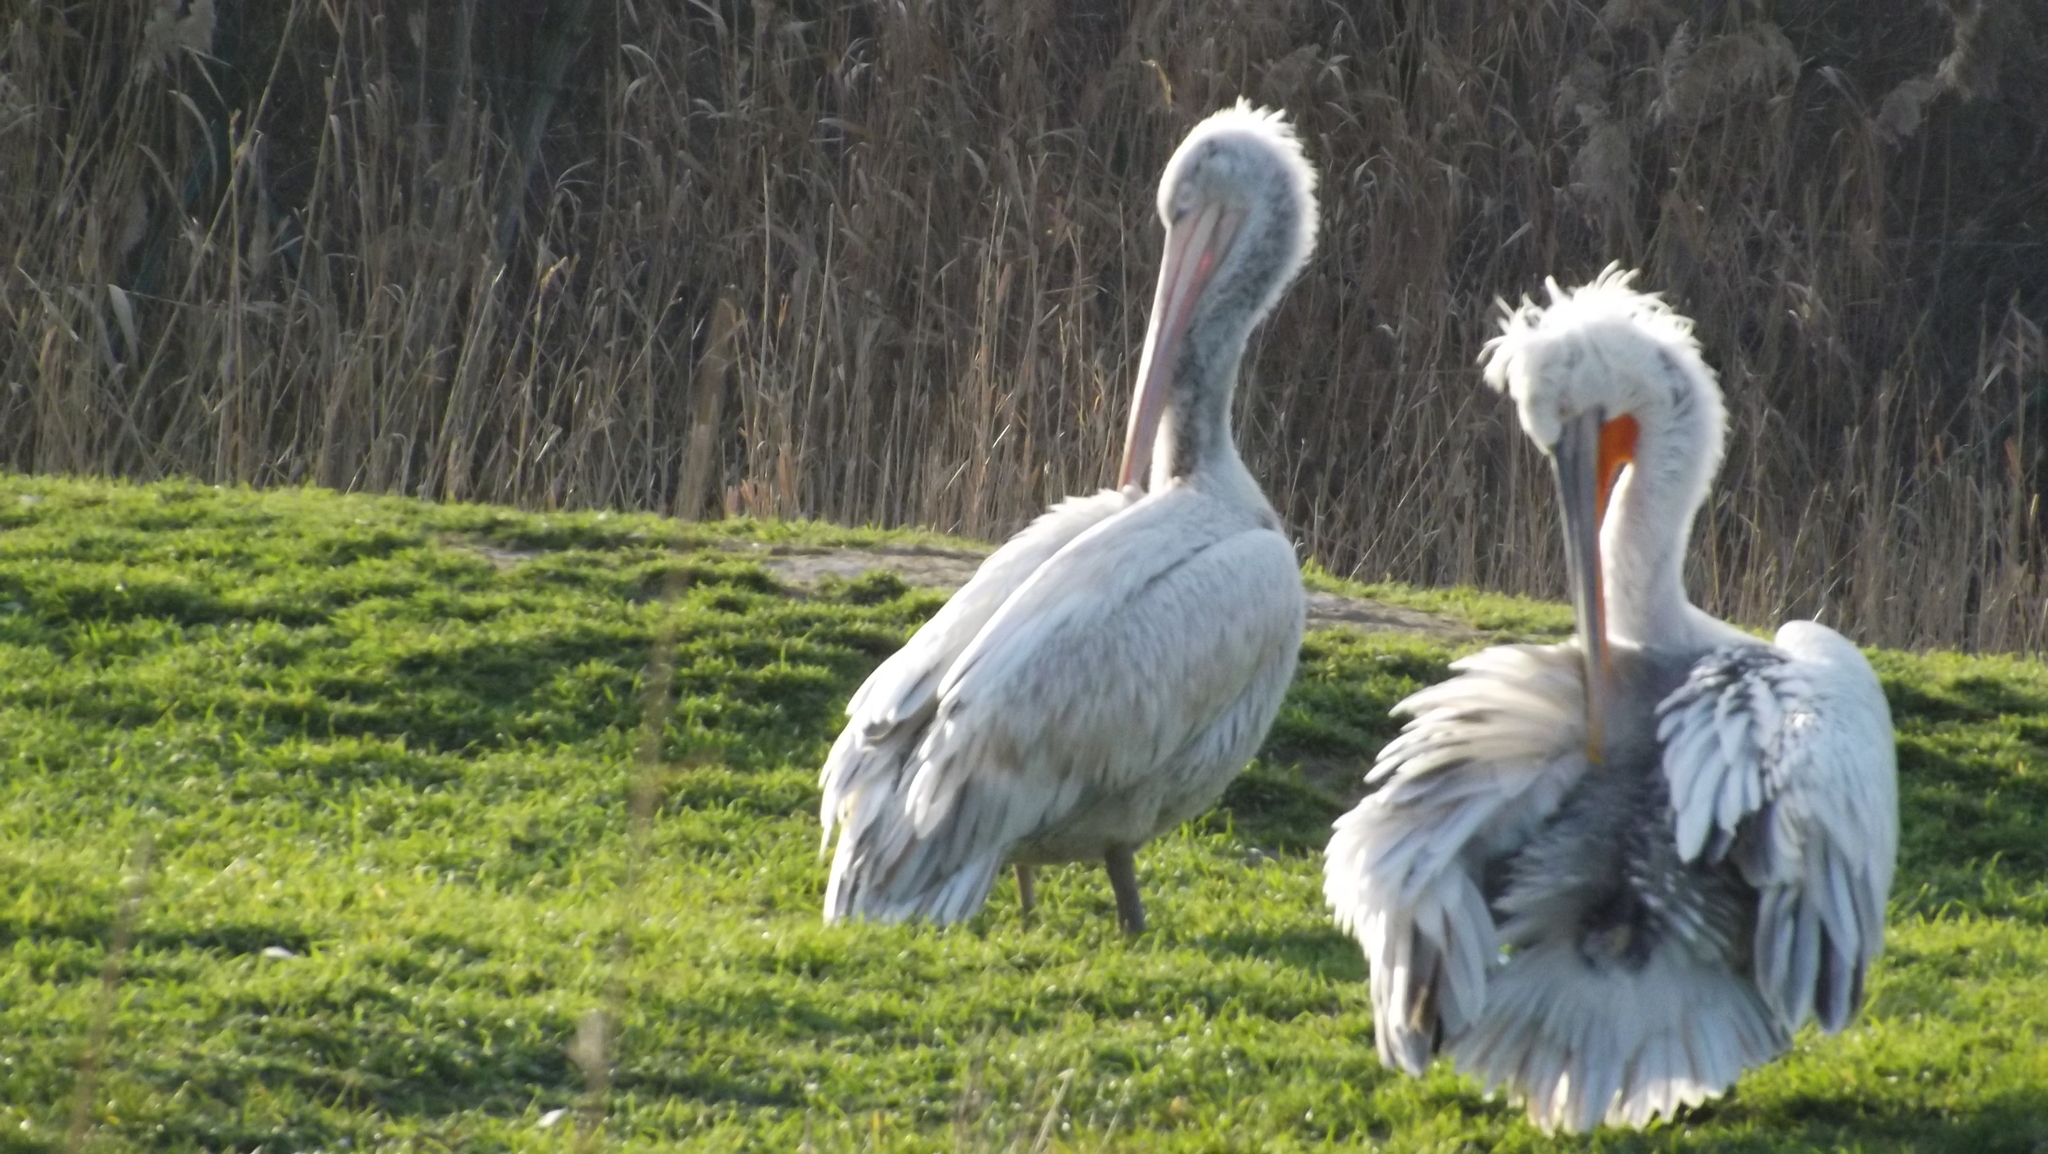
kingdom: Animalia
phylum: Chordata
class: Aves
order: Pelecaniformes
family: Pelecanidae
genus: Pelecanus
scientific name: Pelecanus crispus
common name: Dalmatian pelican
